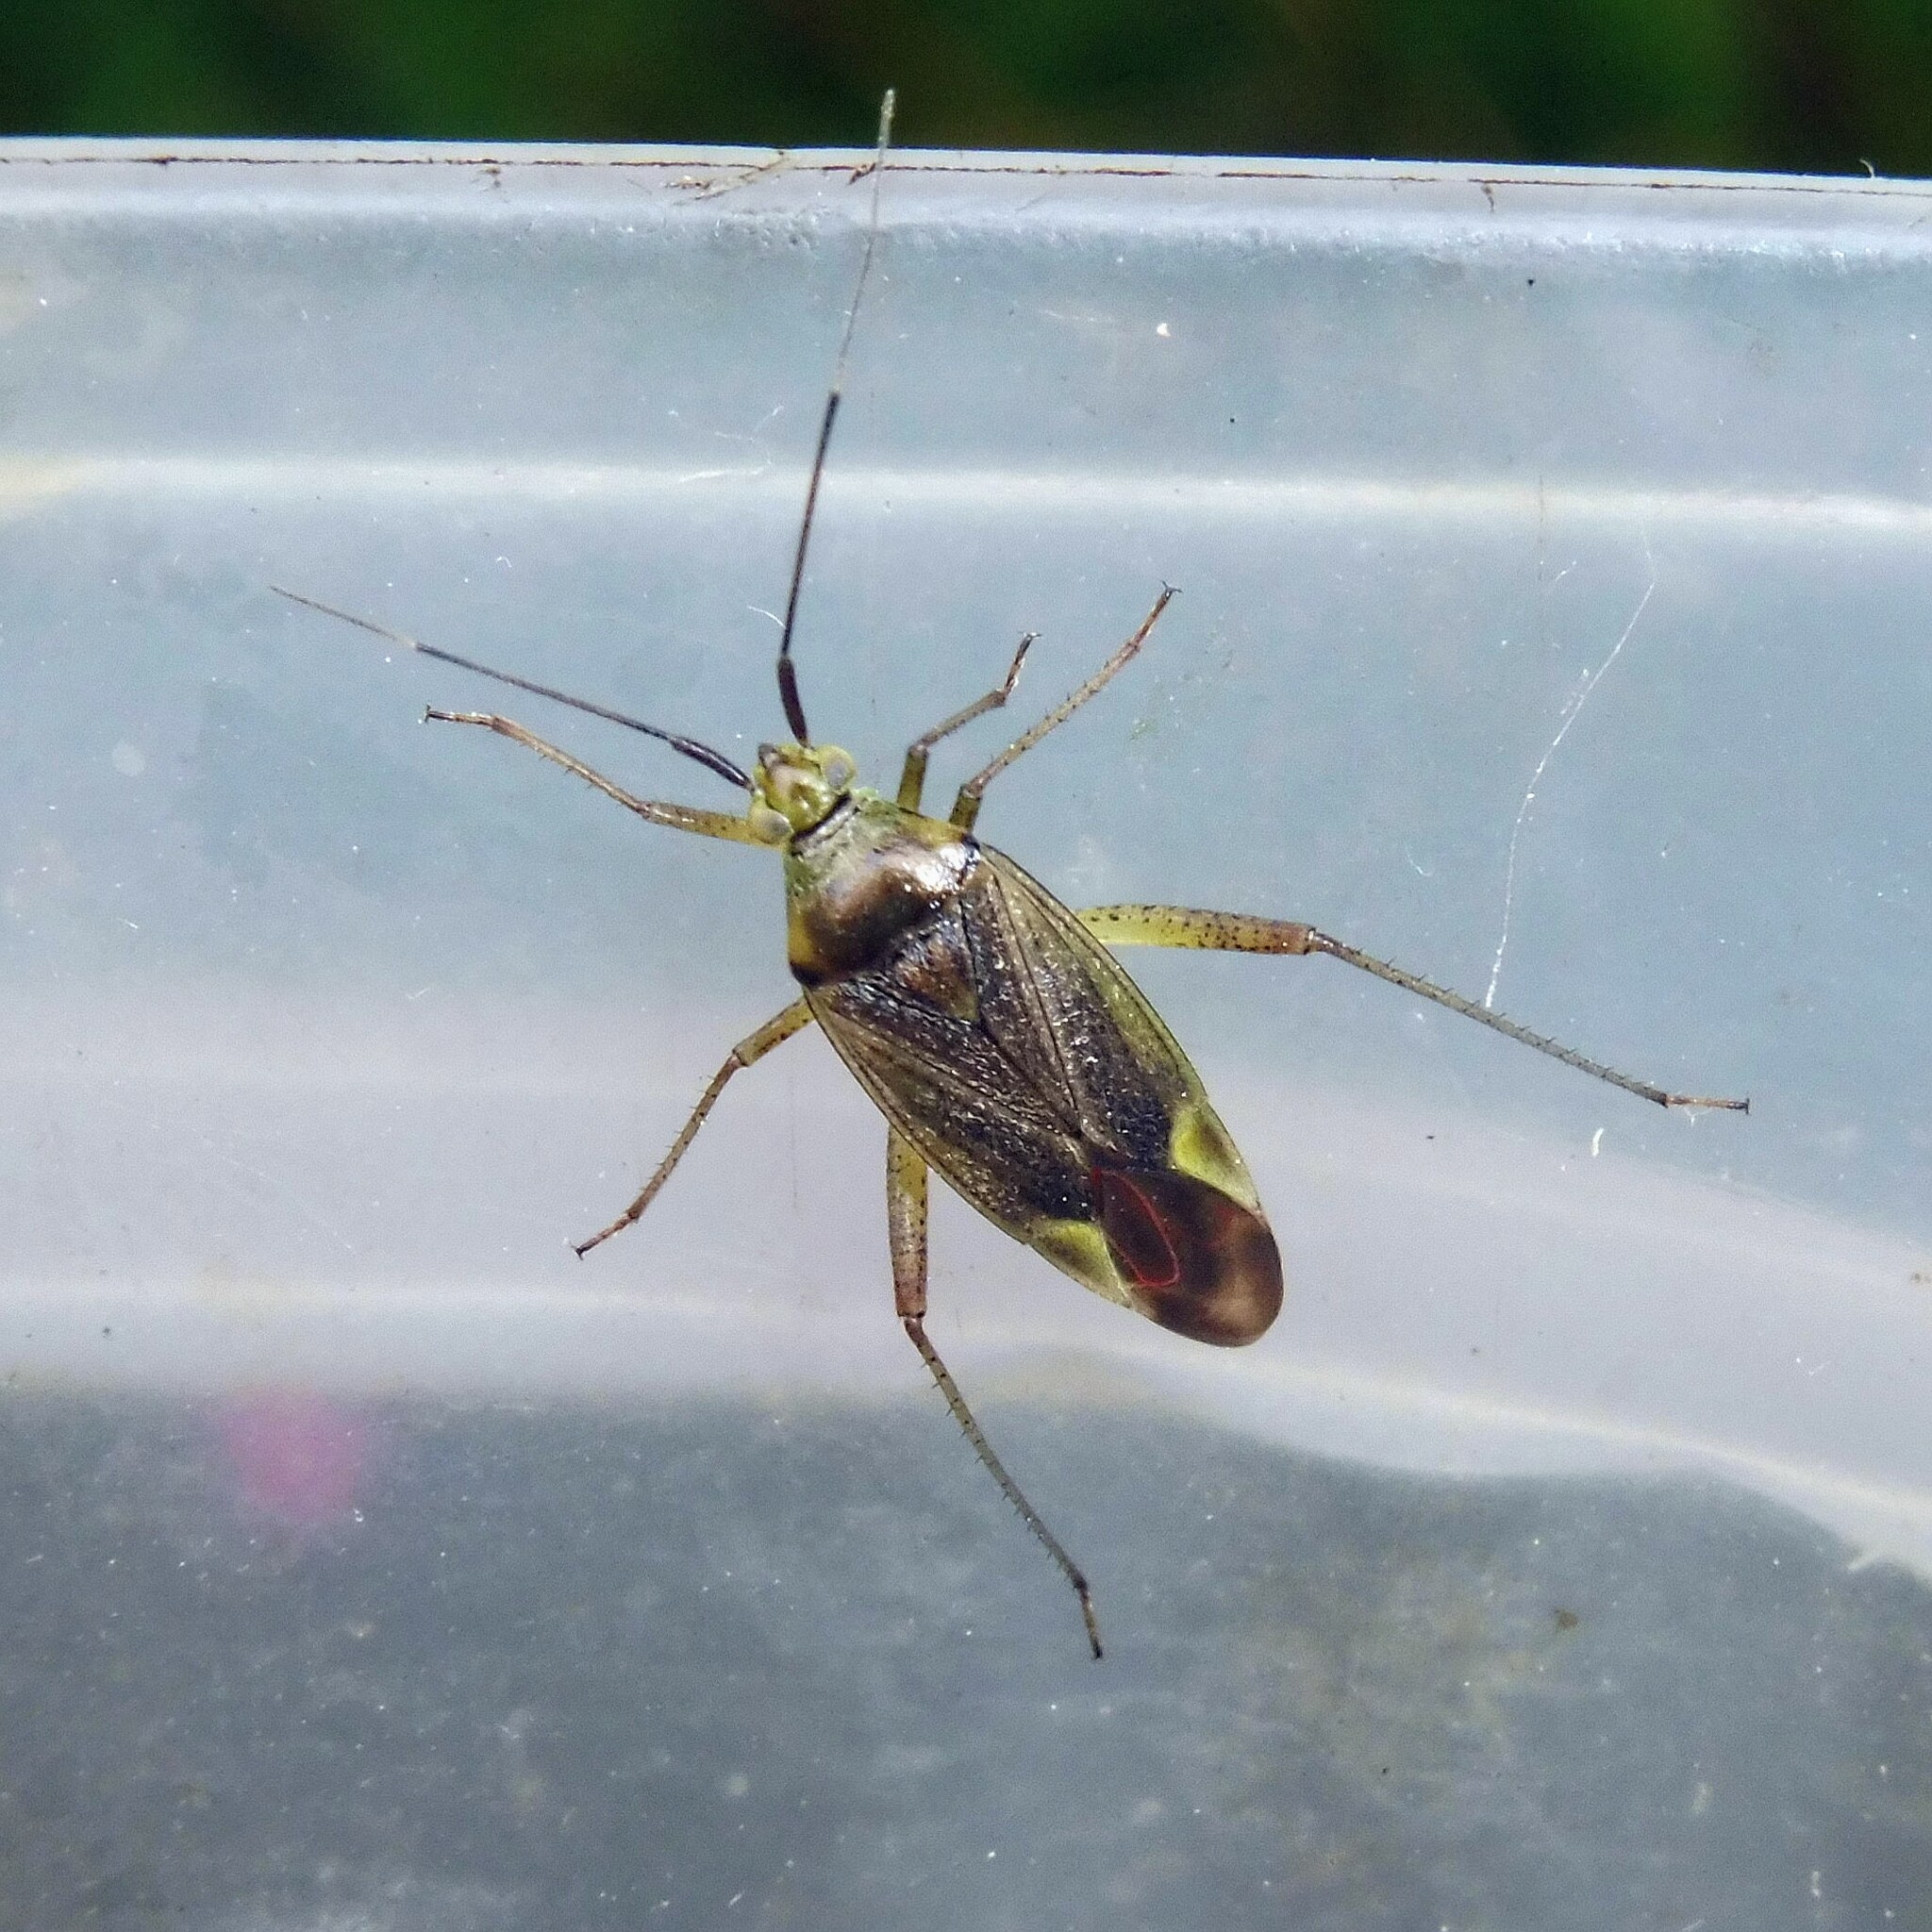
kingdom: Animalia
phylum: Arthropoda
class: Insecta
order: Hemiptera
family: Miridae
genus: Closterotomus
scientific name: Closterotomus trivialis
